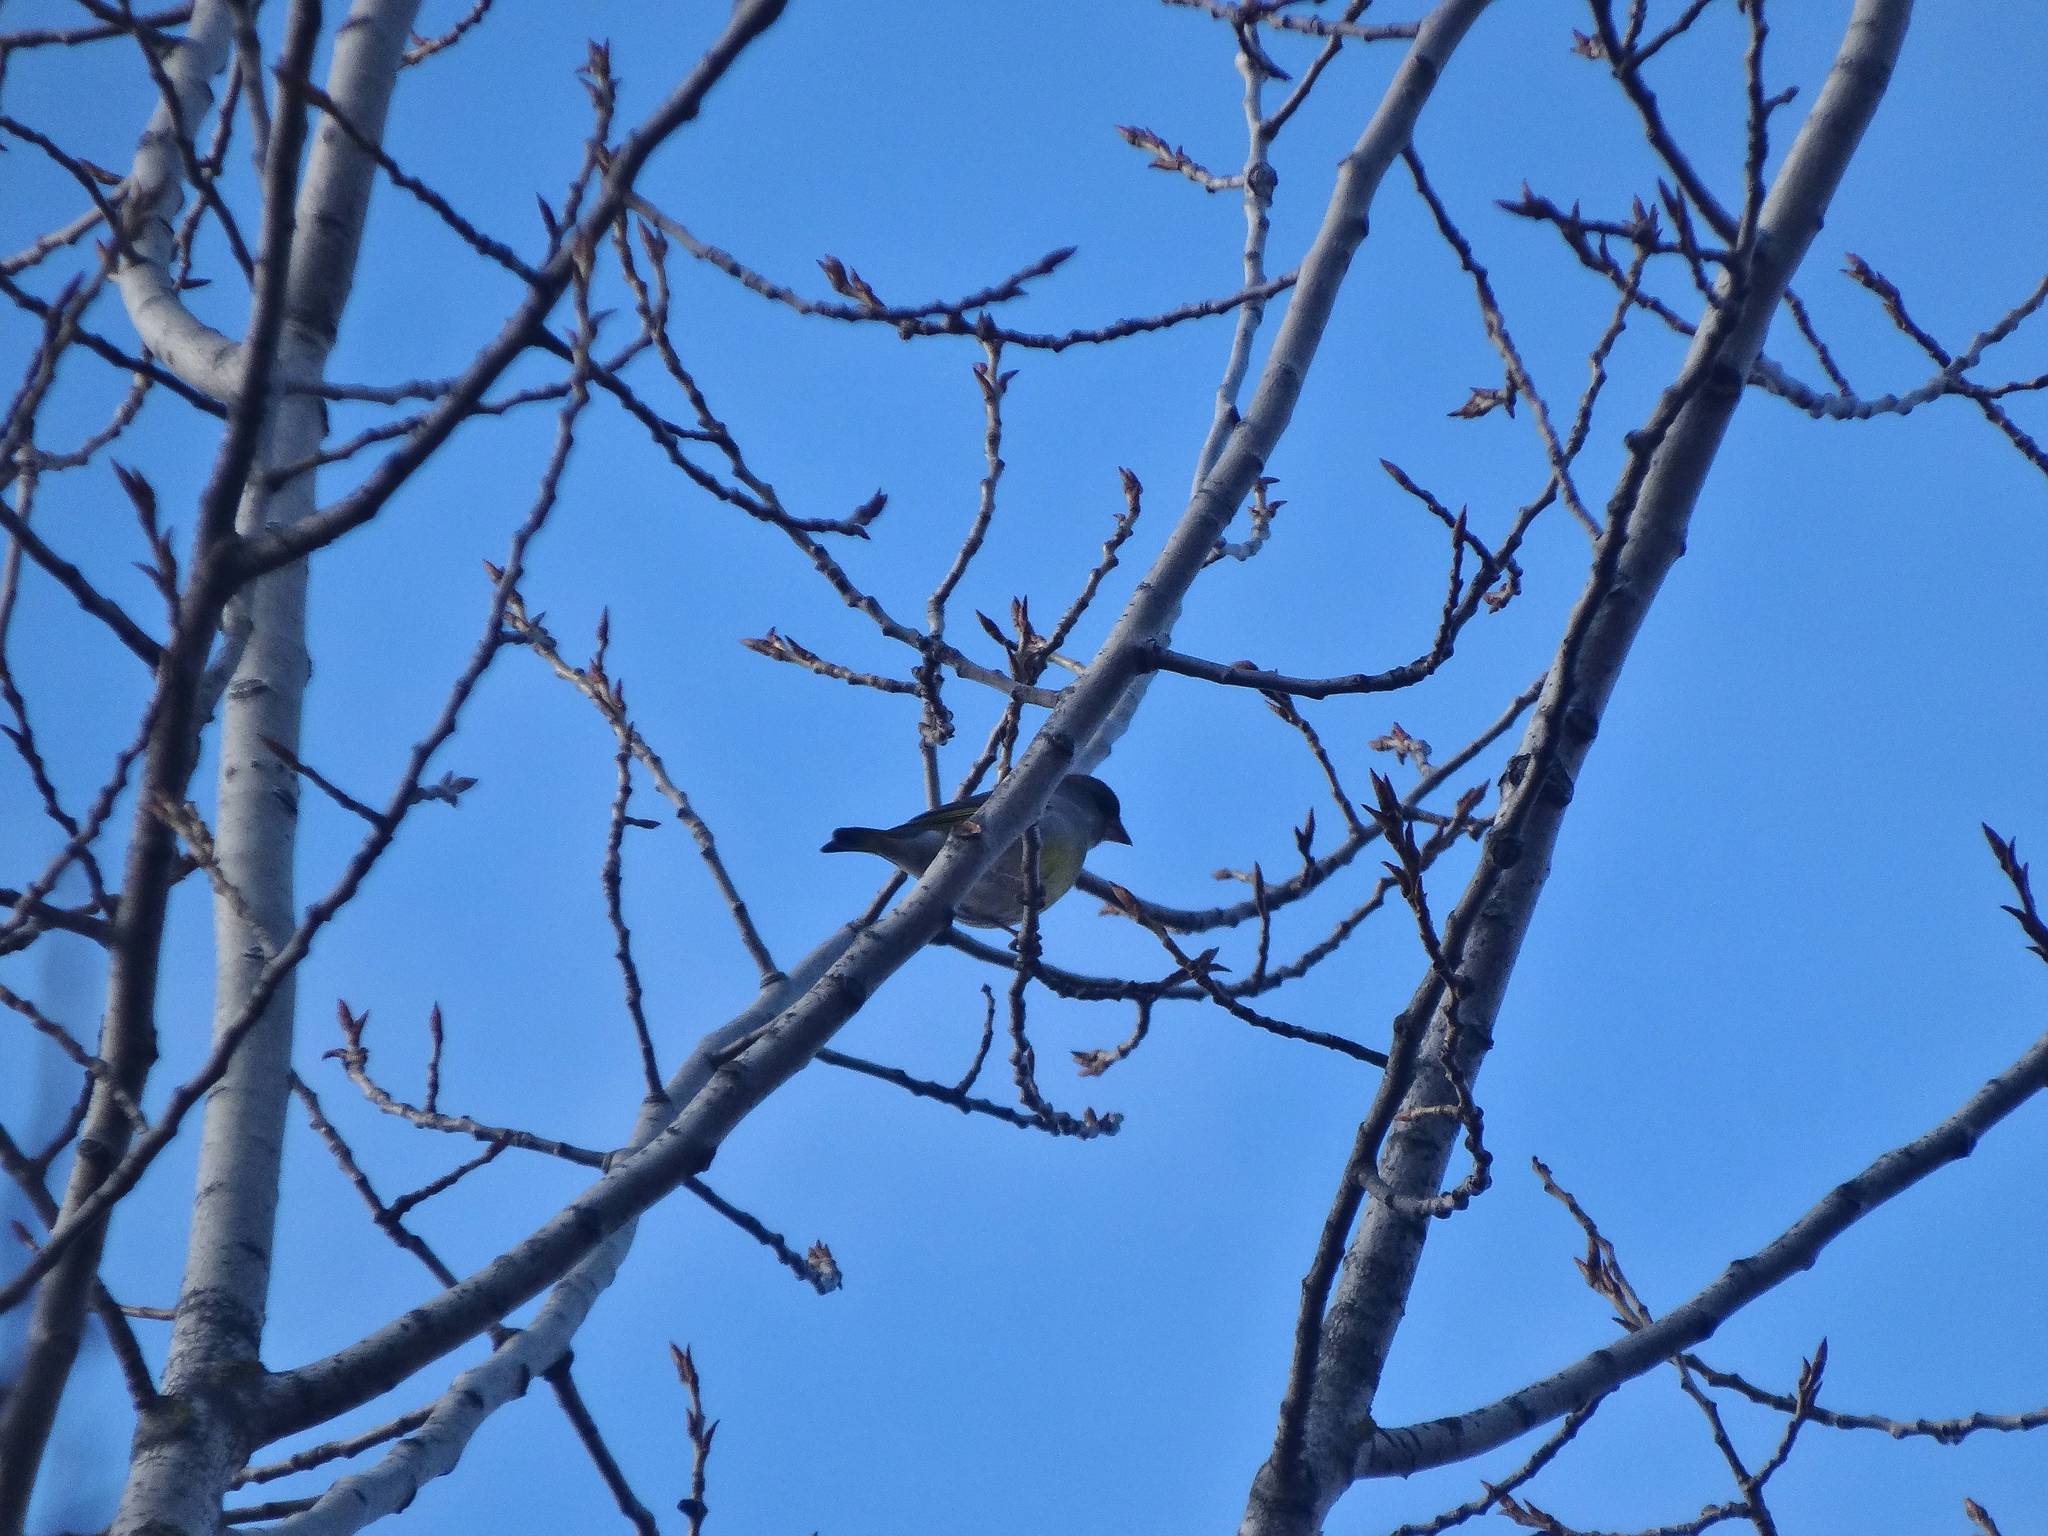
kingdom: Plantae
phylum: Tracheophyta
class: Liliopsida
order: Poales
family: Poaceae
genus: Chloris
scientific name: Chloris chloris
